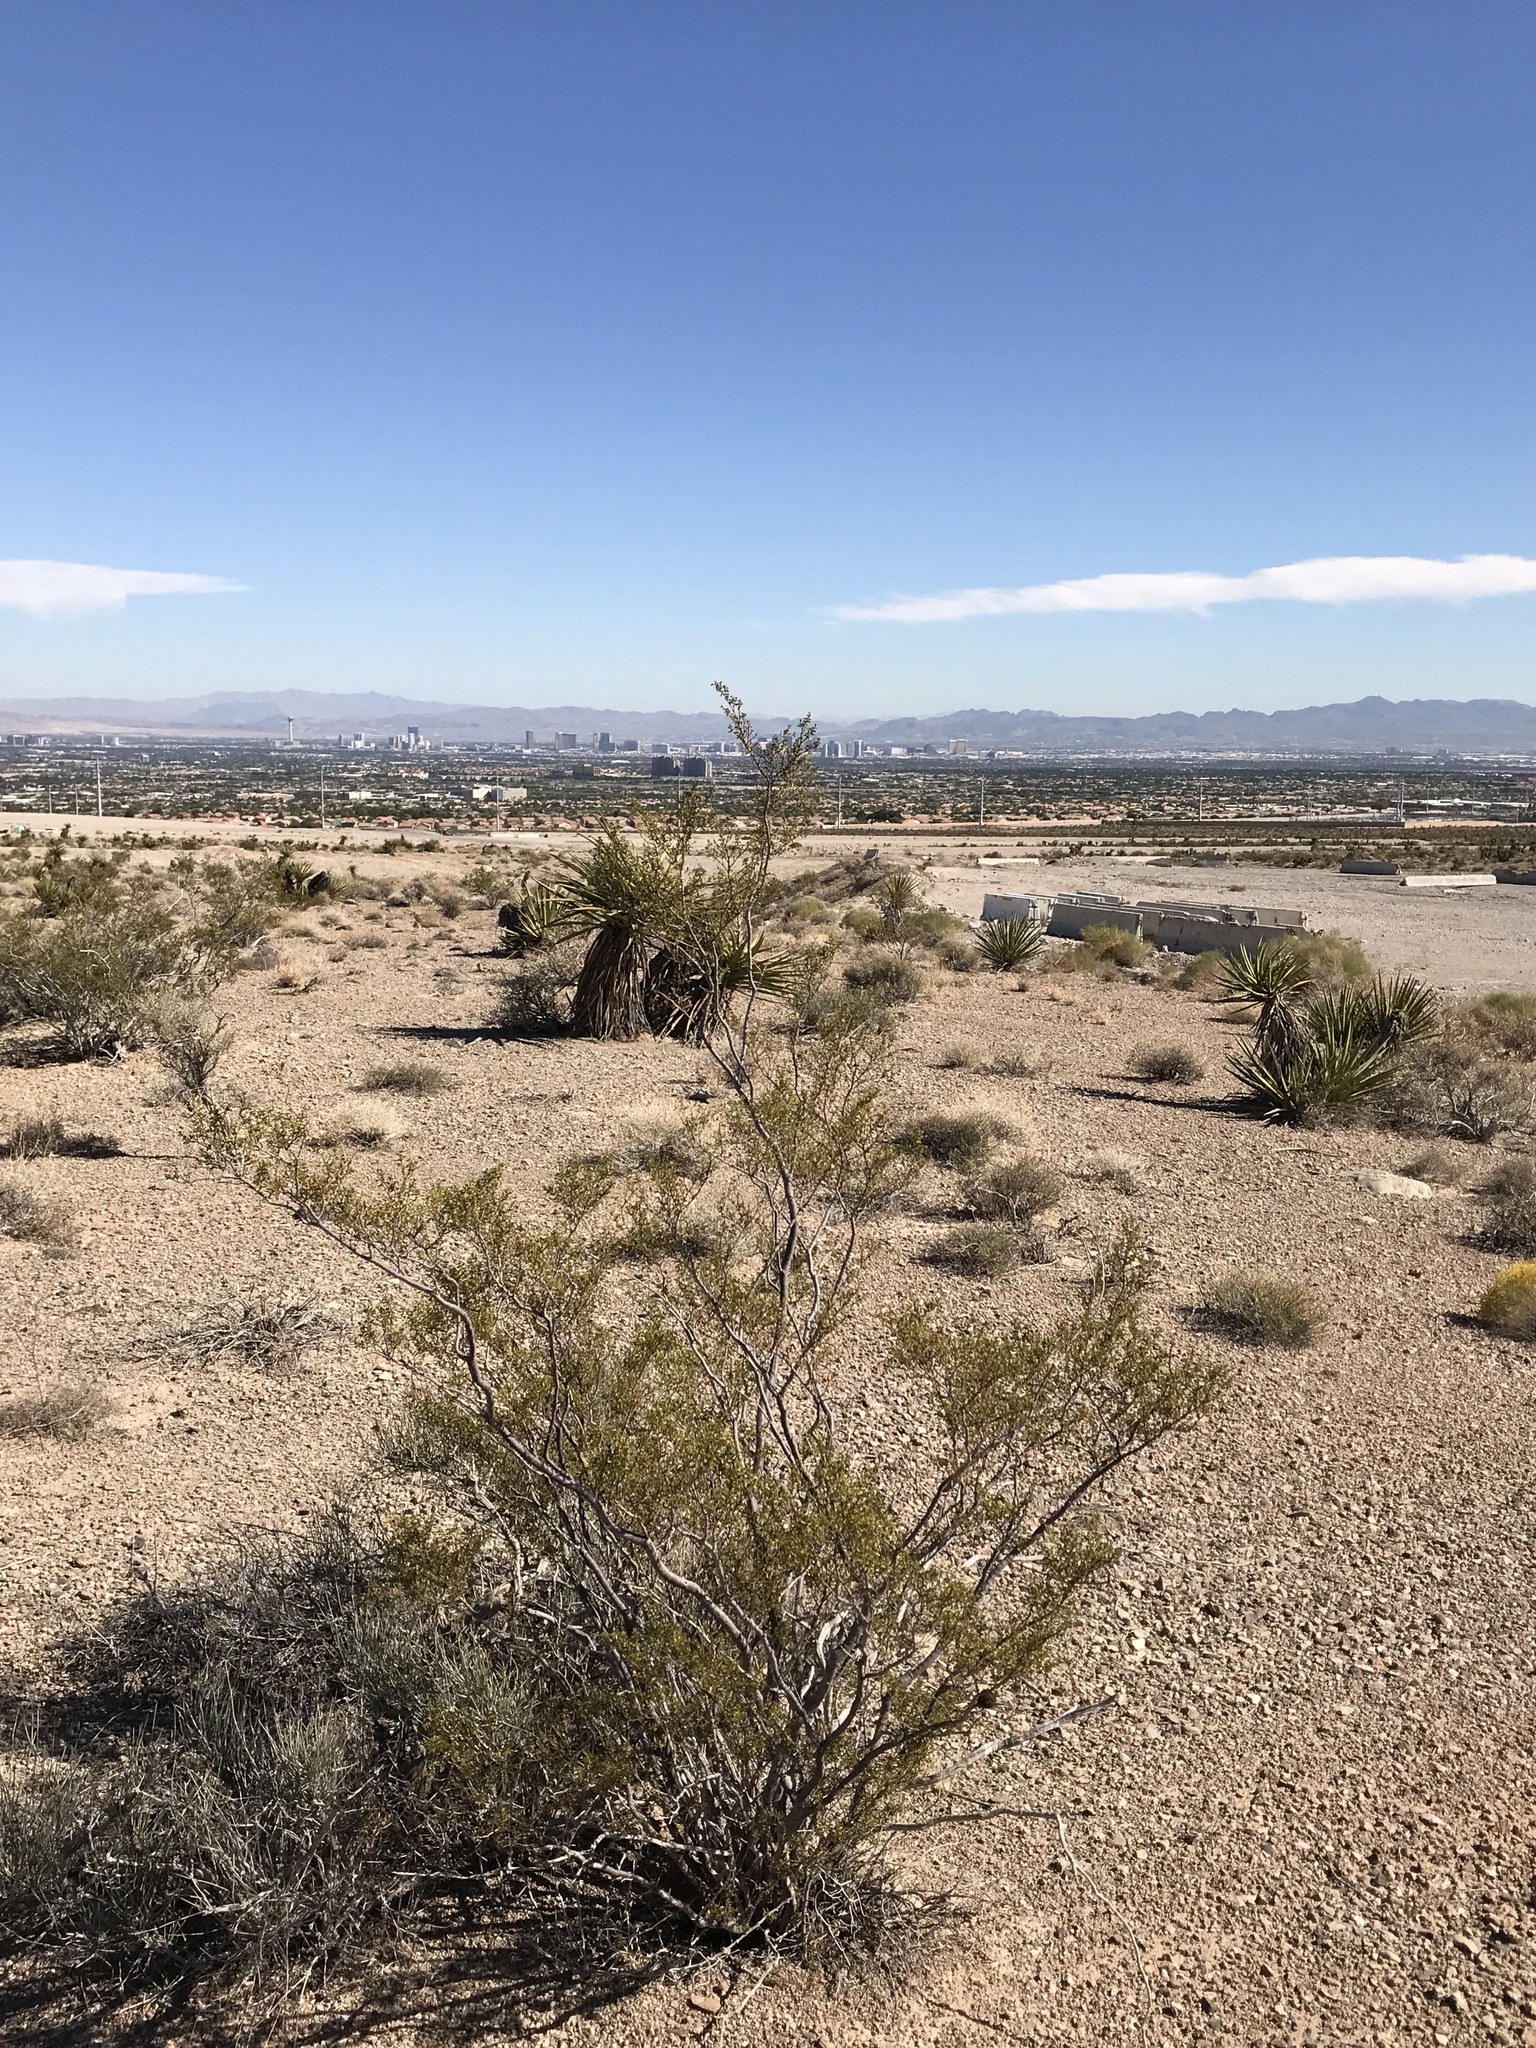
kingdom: Plantae
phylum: Tracheophyta
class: Magnoliopsida
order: Zygophyllales
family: Zygophyllaceae
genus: Larrea
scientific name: Larrea tridentata
